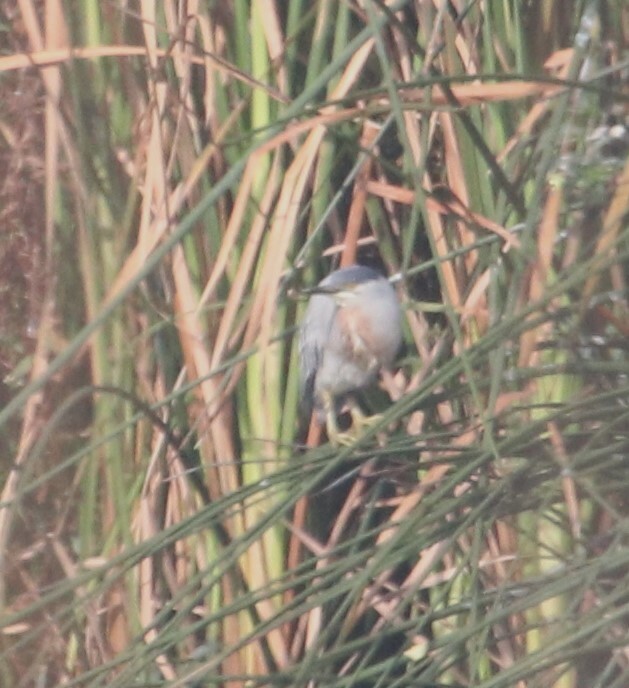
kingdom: Animalia
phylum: Chordata
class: Aves
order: Pelecaniformes
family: Ardeidae
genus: Butorides
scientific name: Butorides striata
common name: Striated heron
